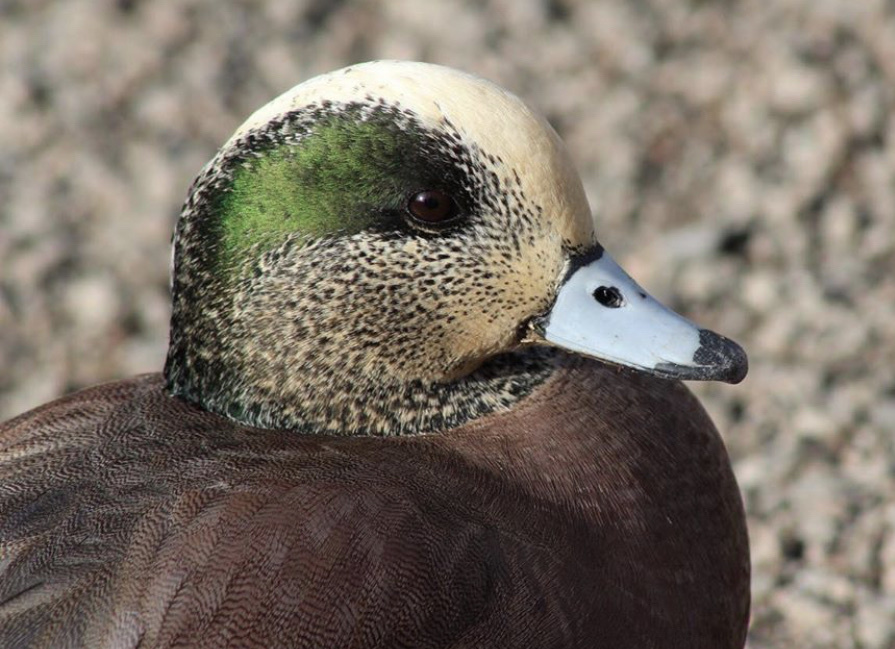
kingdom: Animalia
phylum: Chordata
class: Aves
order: Anseriformes
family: Anatidae
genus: Mareca
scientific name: Mareca americana
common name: American wigeon
